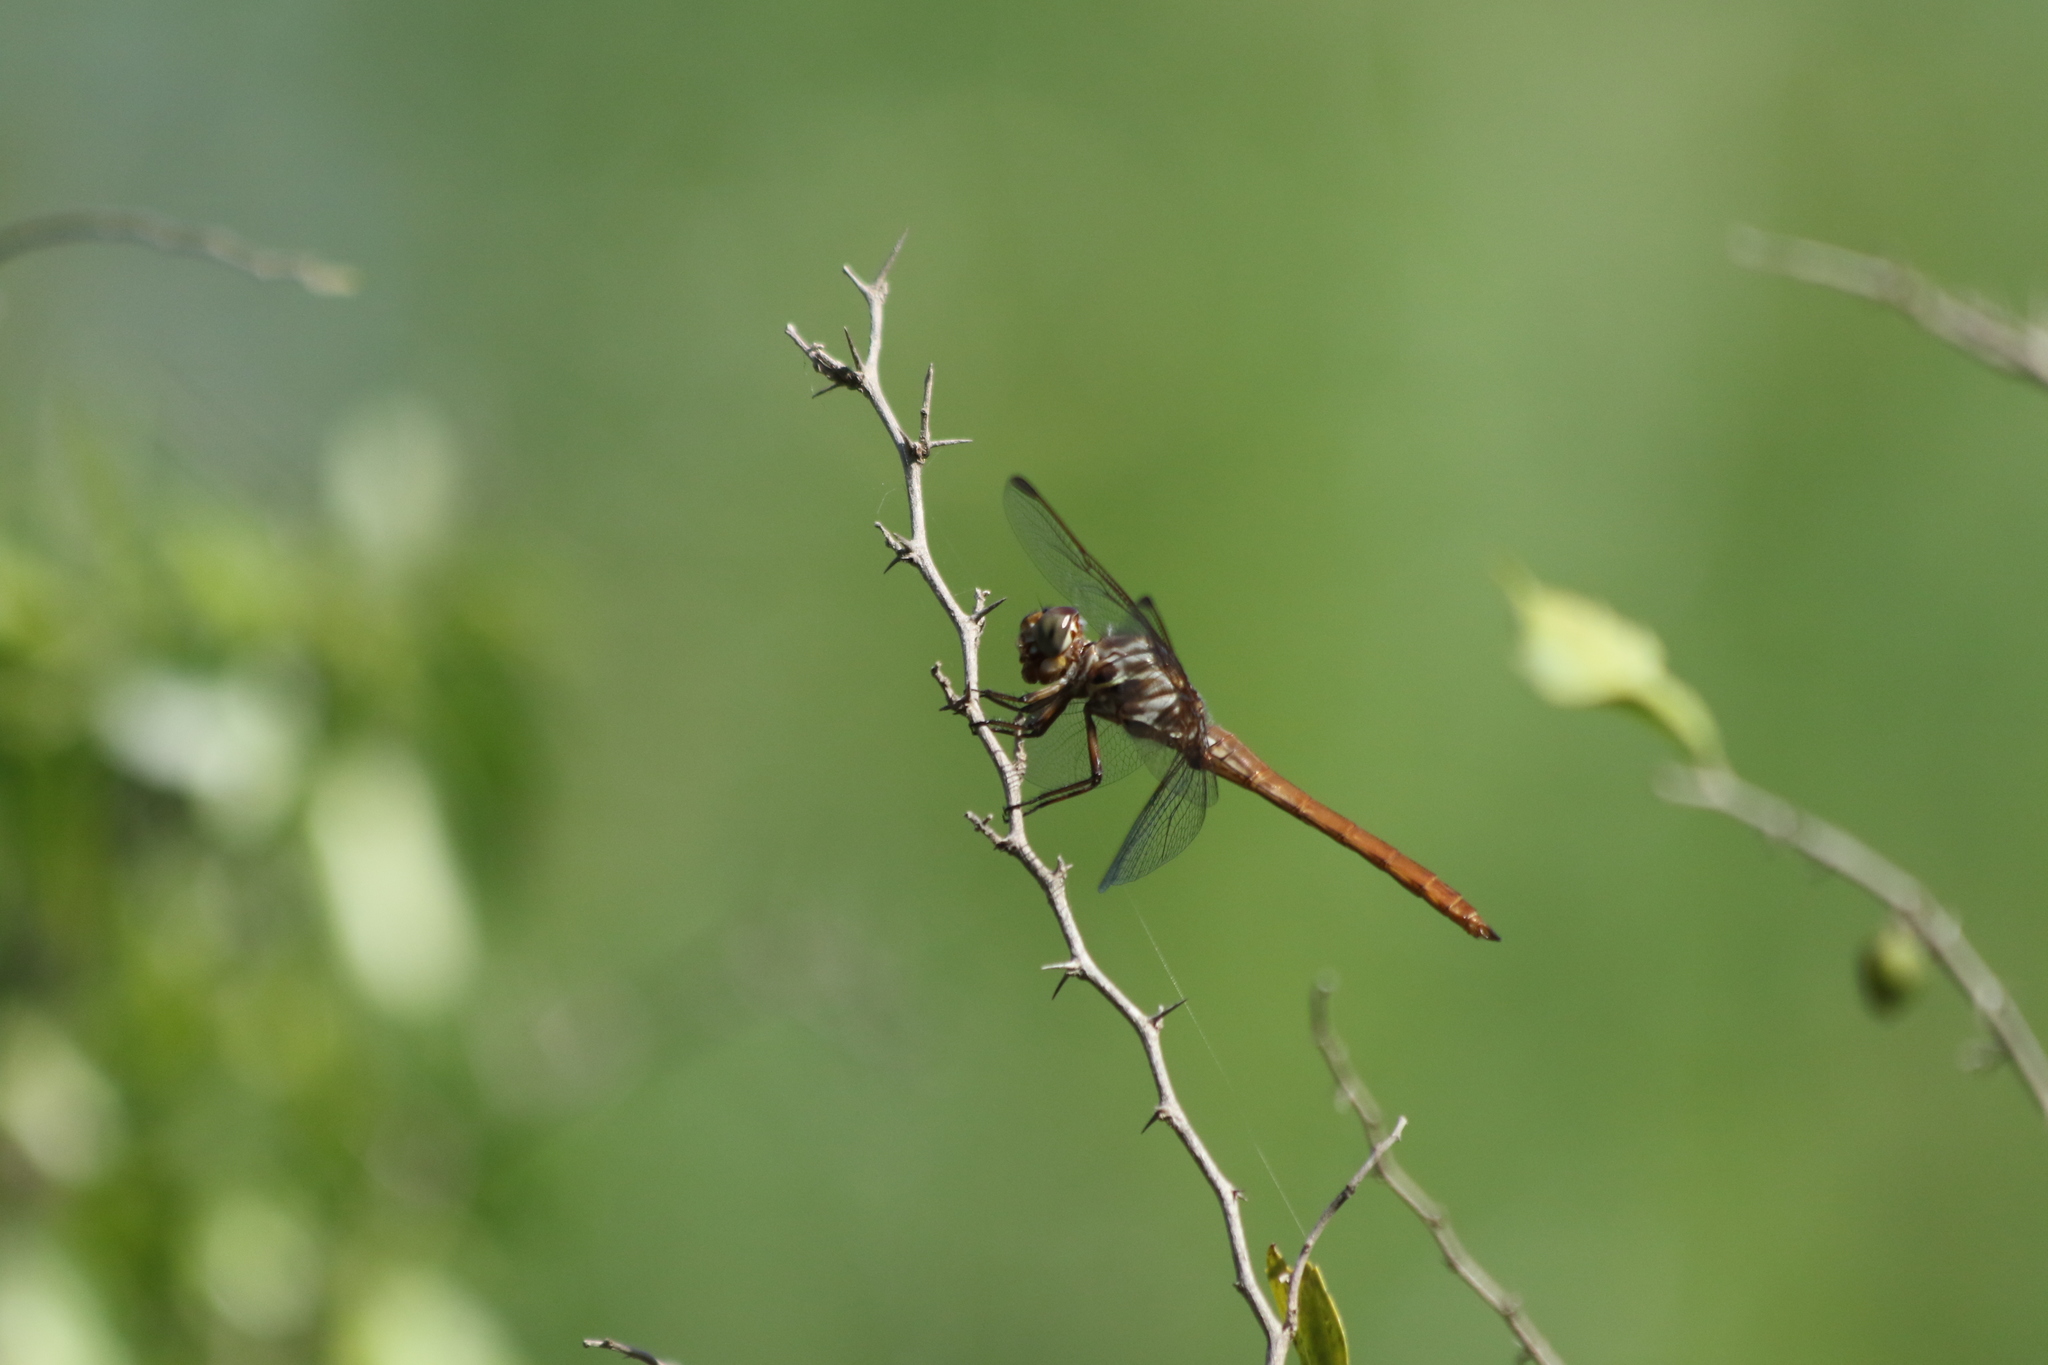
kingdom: Animalia
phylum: Arthropoda
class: Insecta
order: Odonata
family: Libellulidae
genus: Orthemis
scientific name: Orthemis ferruginea
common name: Roseate skimmer
